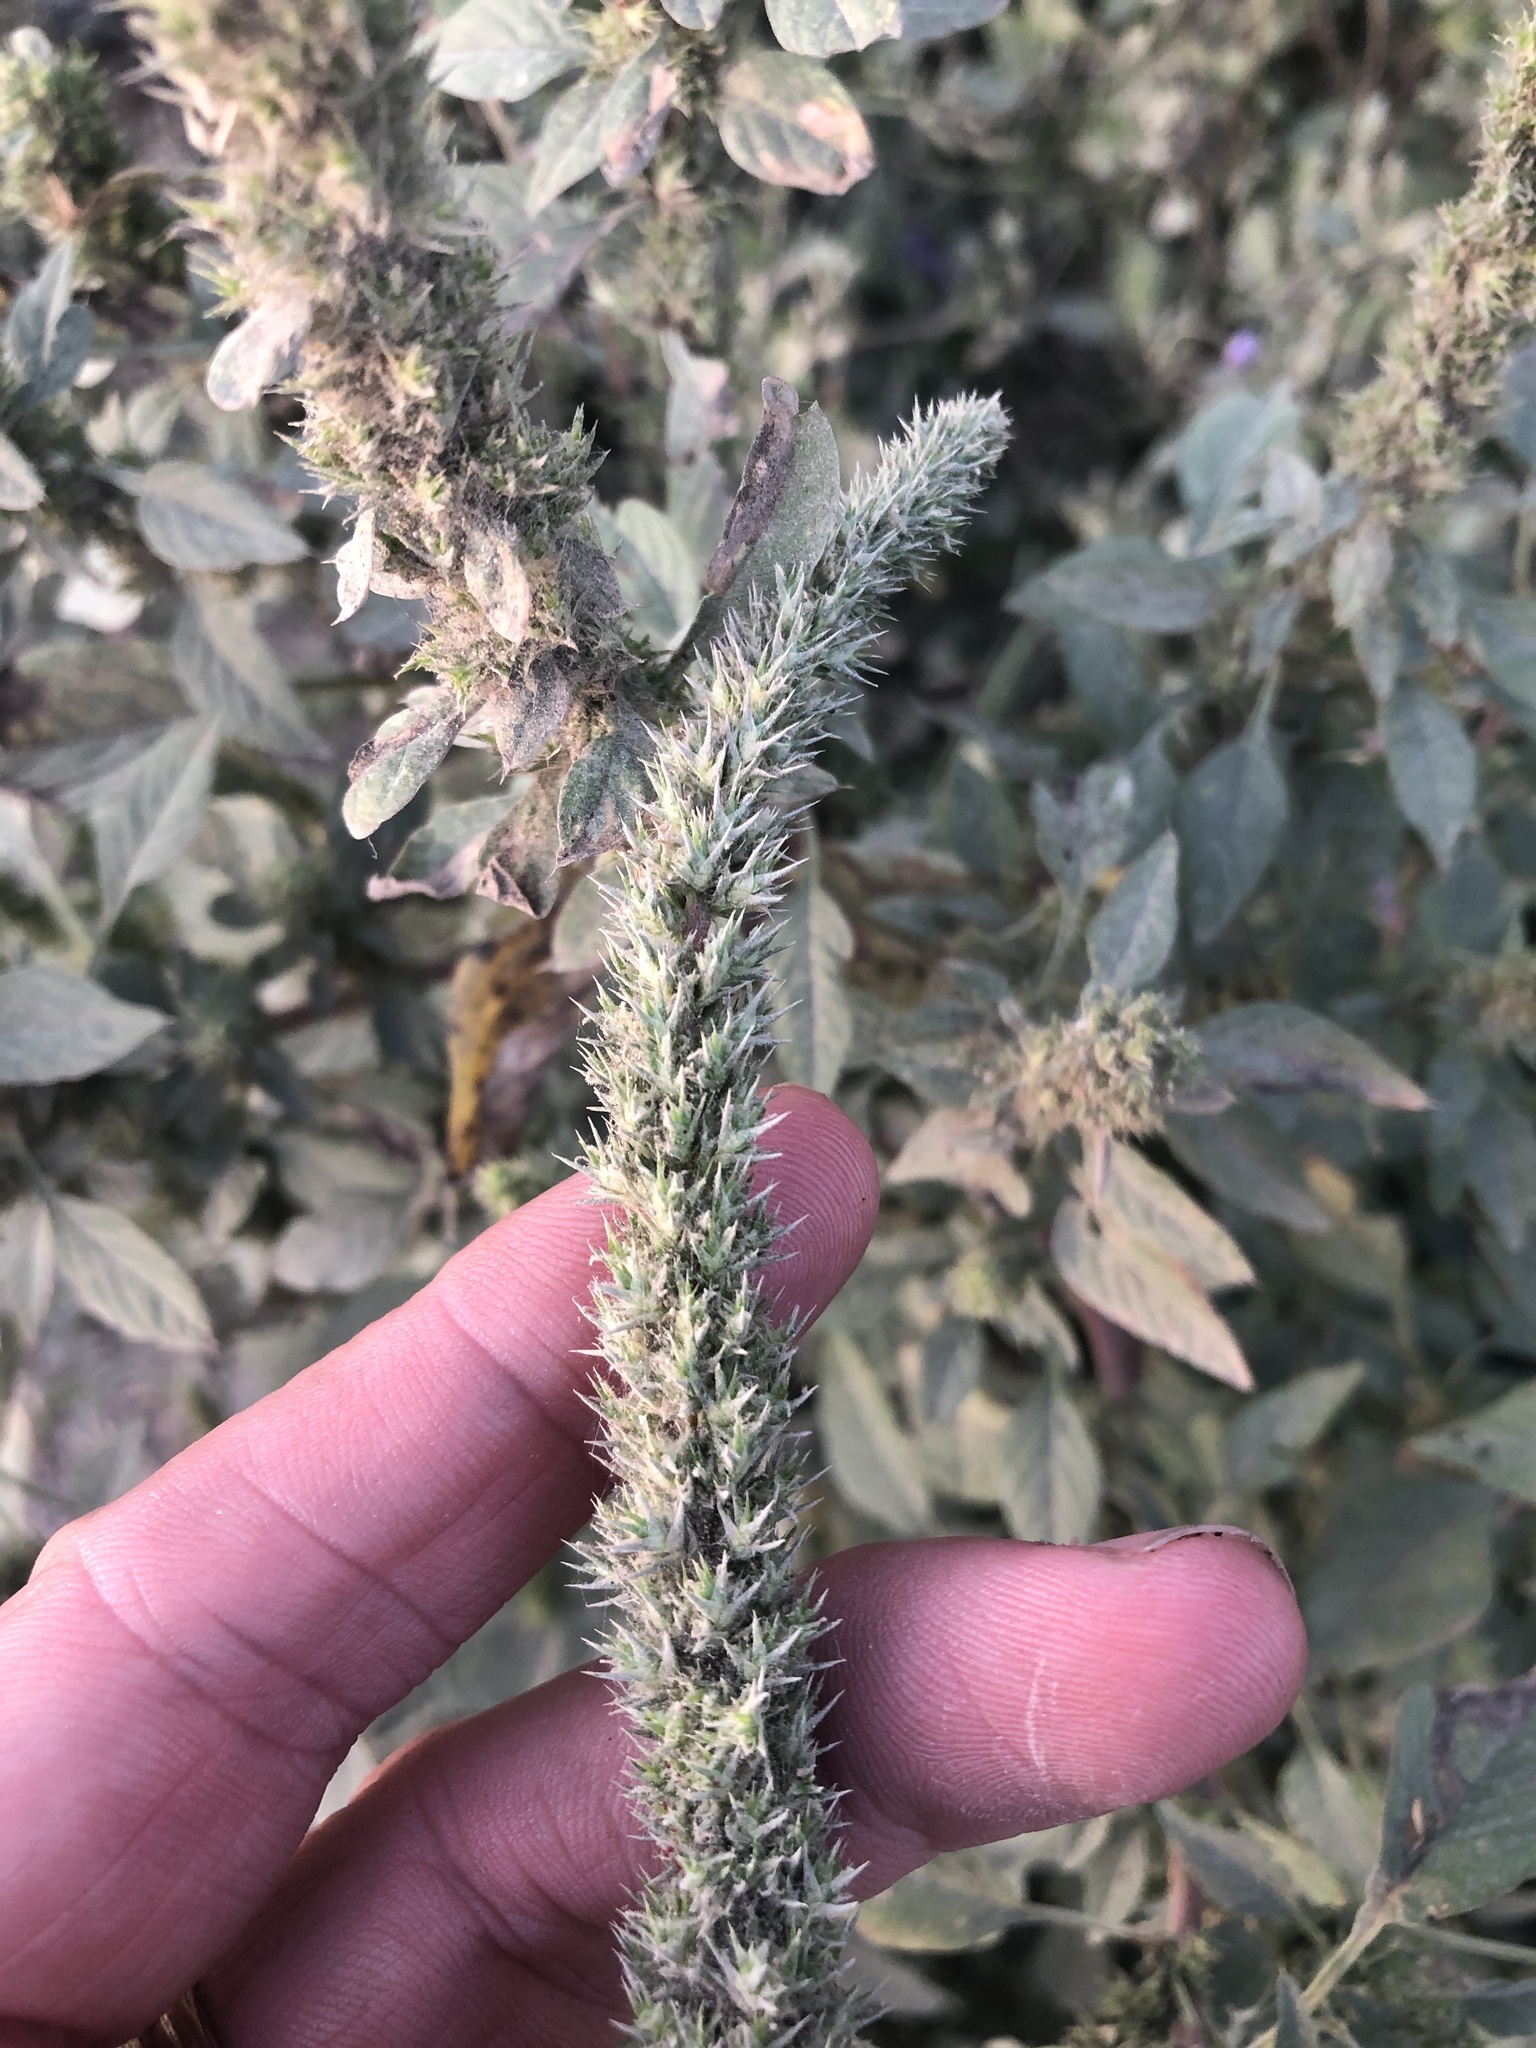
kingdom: Plantae
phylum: Tracheophyta
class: Magnoliopsida
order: Caryophyllales
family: Amaranthaceae
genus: Amaranthus
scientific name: Amaranthus palmeri
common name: Dioecious amaranth
